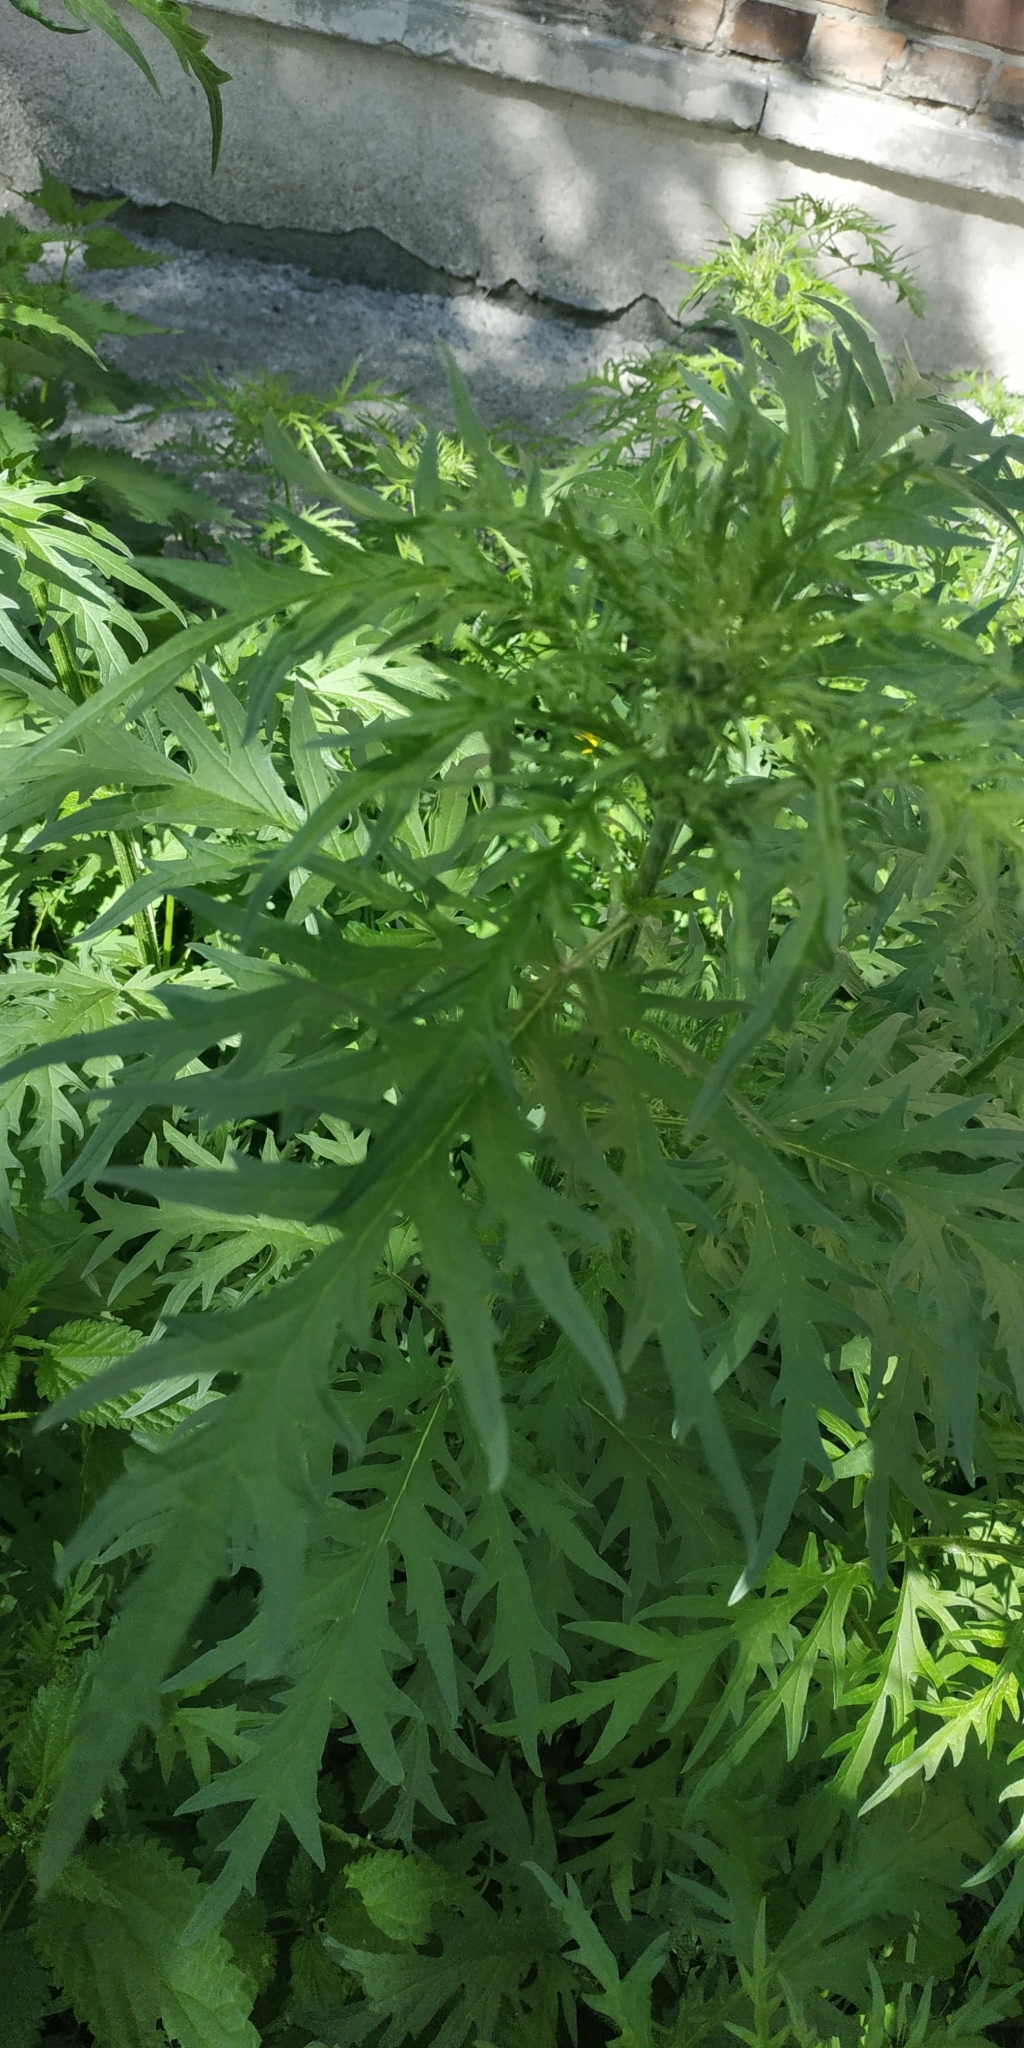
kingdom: Plantae
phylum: Tracheophyta
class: Magnoliopsida
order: Rosales
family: Urticaceae
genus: Urtica
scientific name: Urtica cannabina
